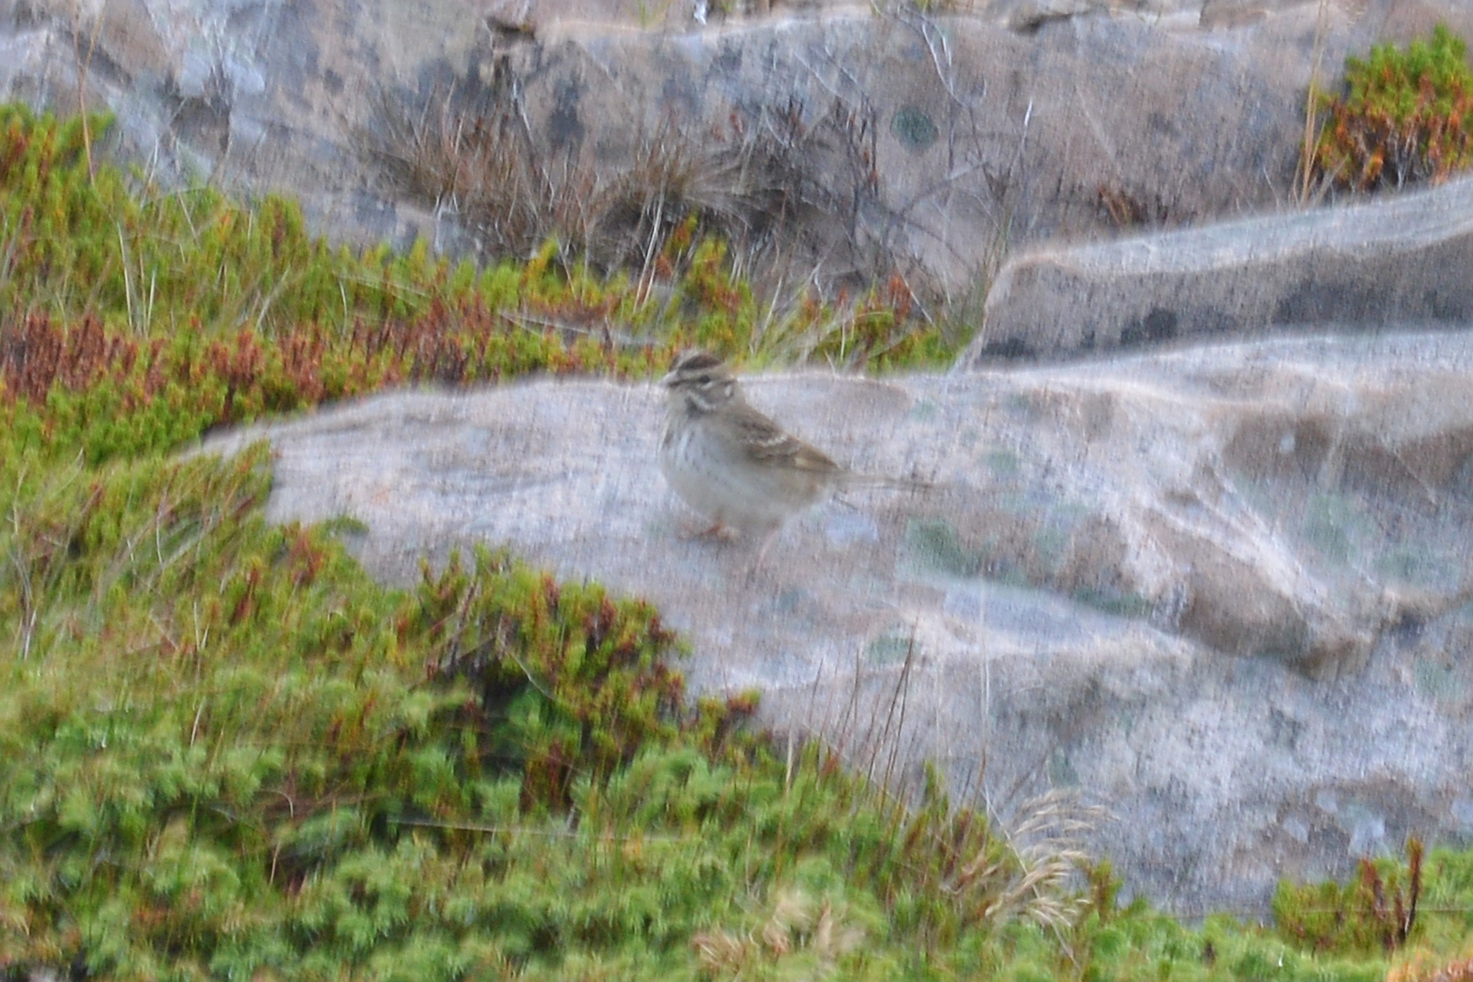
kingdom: Animalia
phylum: Chordata
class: Aves
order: Passeriformes
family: Passerellidae
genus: Chondestes
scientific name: Chondestes grammacus
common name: Lark sparrow
